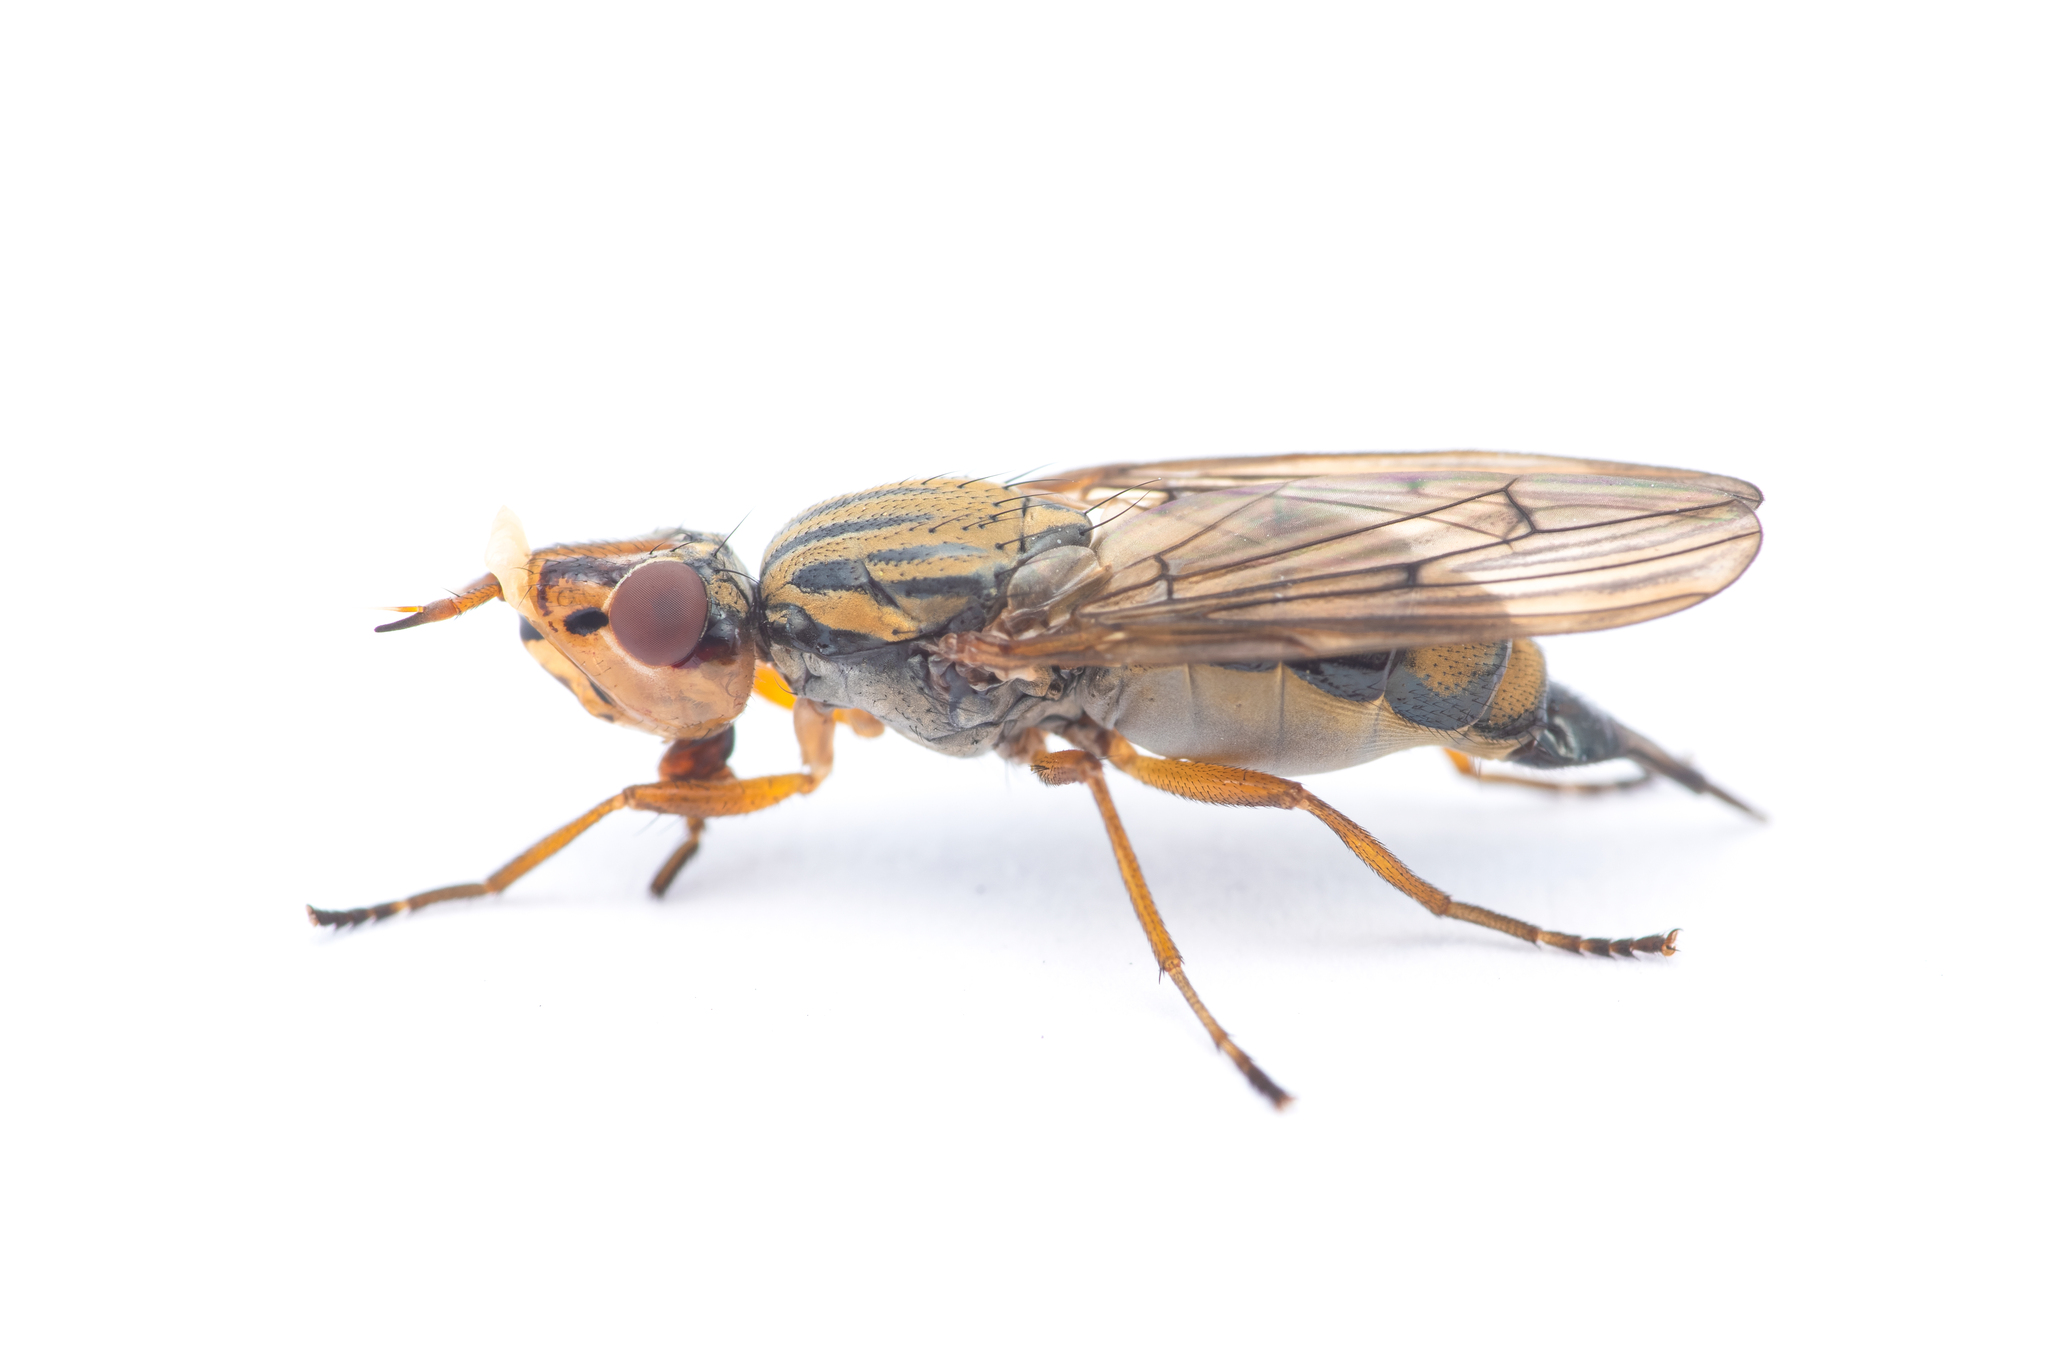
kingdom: Animalia
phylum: Arthropoda
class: Insecta
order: Diptera
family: Ulidiidae
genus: Dorycera
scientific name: Dorycera aquatica
